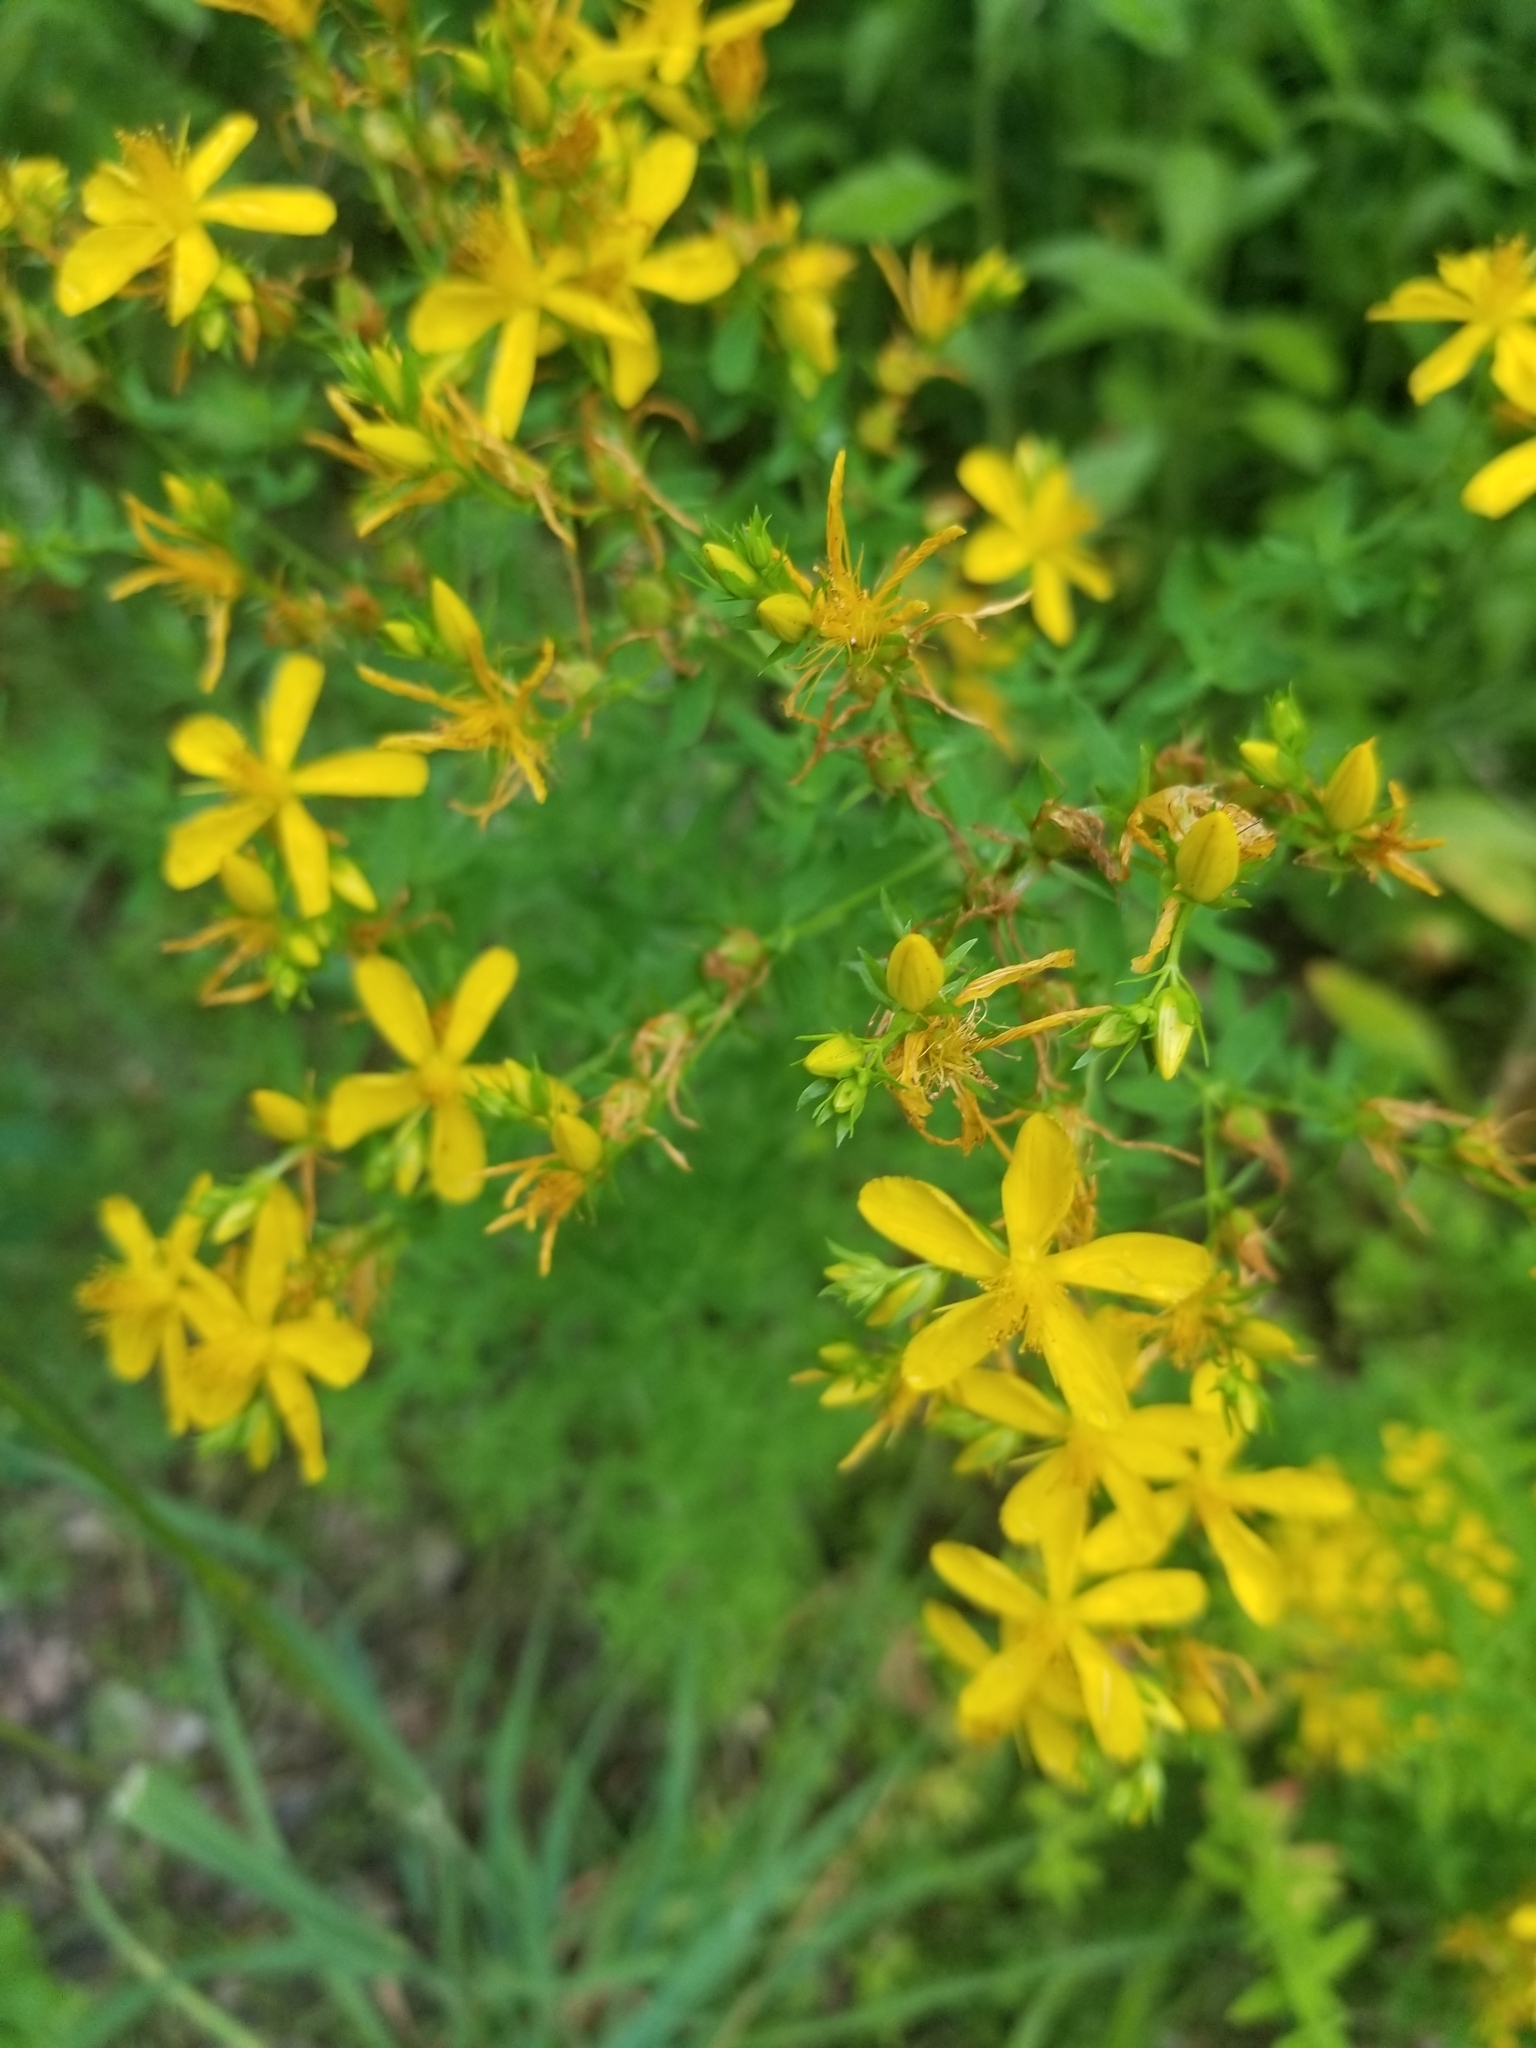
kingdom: Plantae
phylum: Tracheophyta
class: Magnoliopsida
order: Malpighiales
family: Hypericaceae
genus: Hypericum
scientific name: Hypericum perforatum
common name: Common st. johnswort
